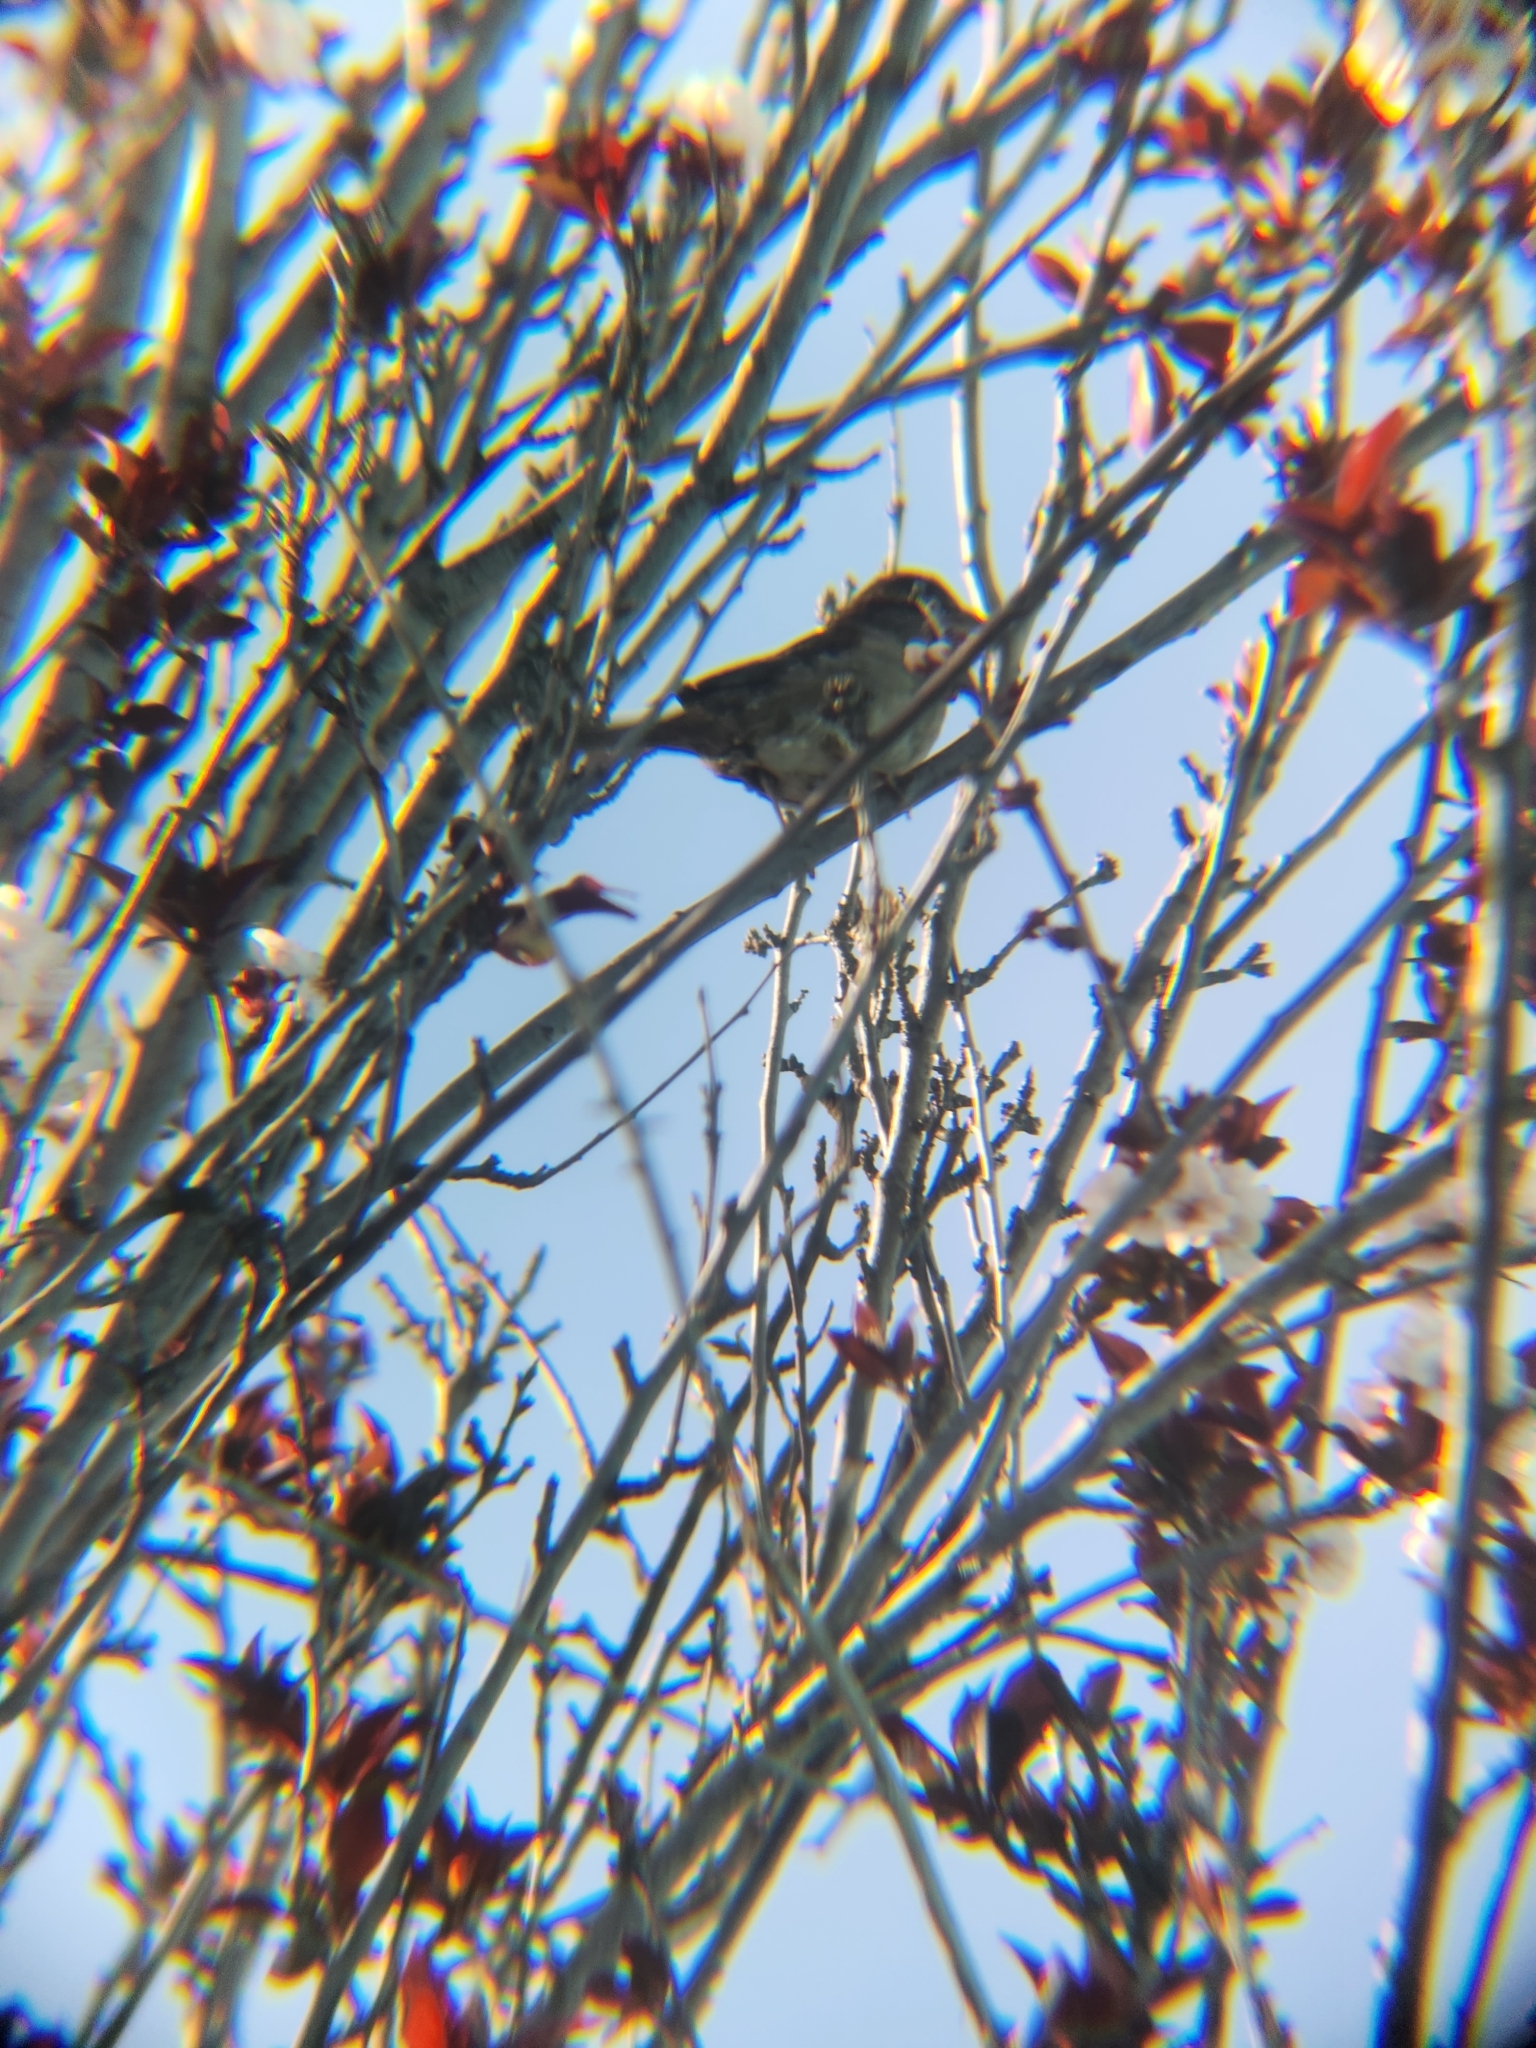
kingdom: Animalia
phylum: Chordata
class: Aves
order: Passeriformes
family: Passeridae
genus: Passer
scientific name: Passer domesticus
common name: House sparrow
